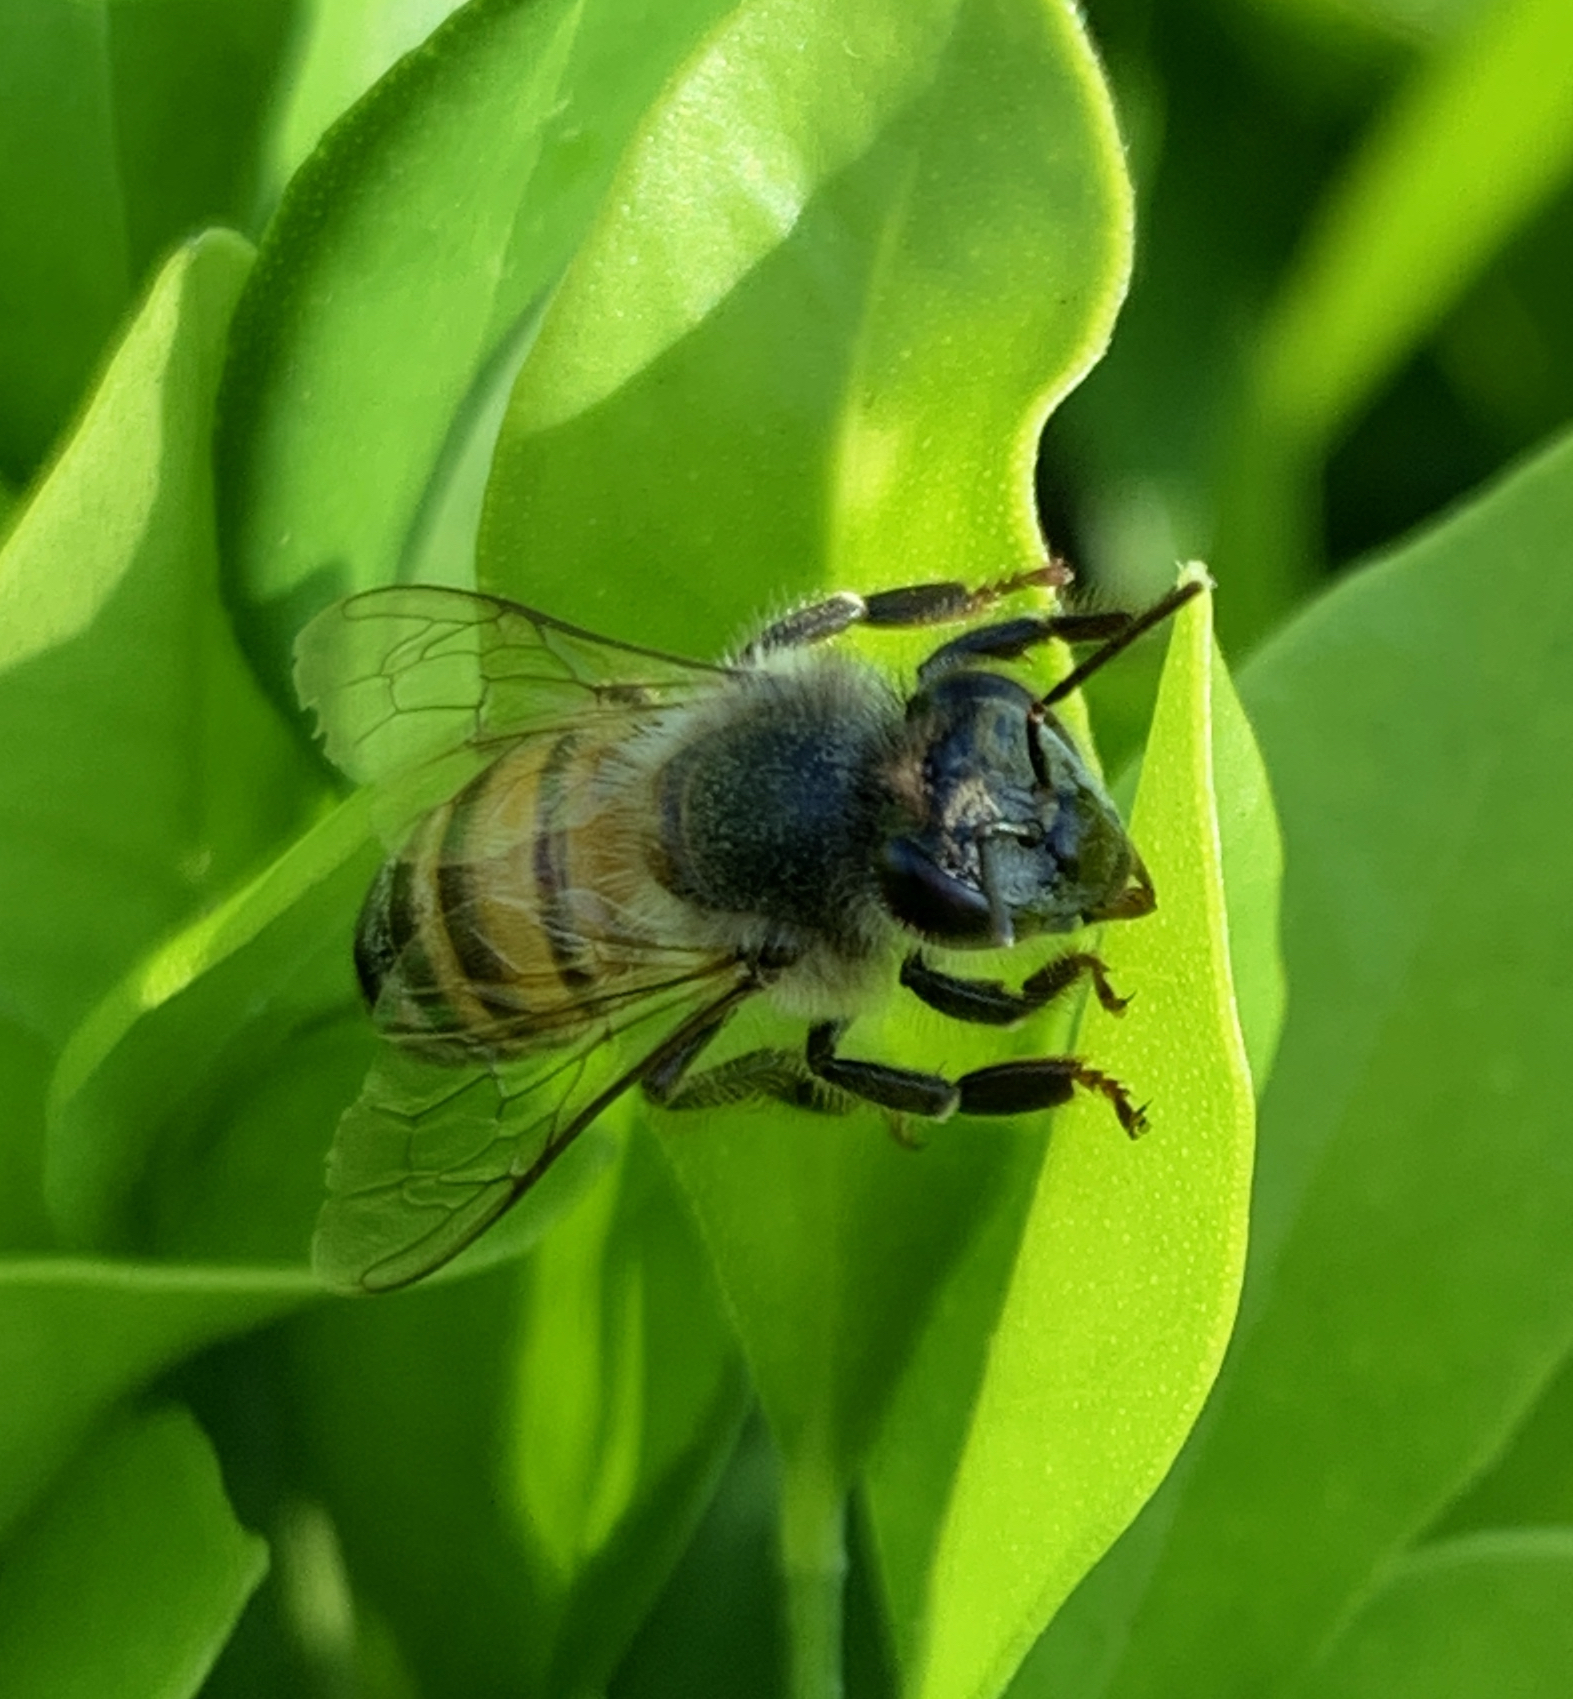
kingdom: Animalia
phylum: Arthropoda
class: Insecta
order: Hymenoptera
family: Apidae
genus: Apis
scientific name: Apis mellifera
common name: Honey bee
